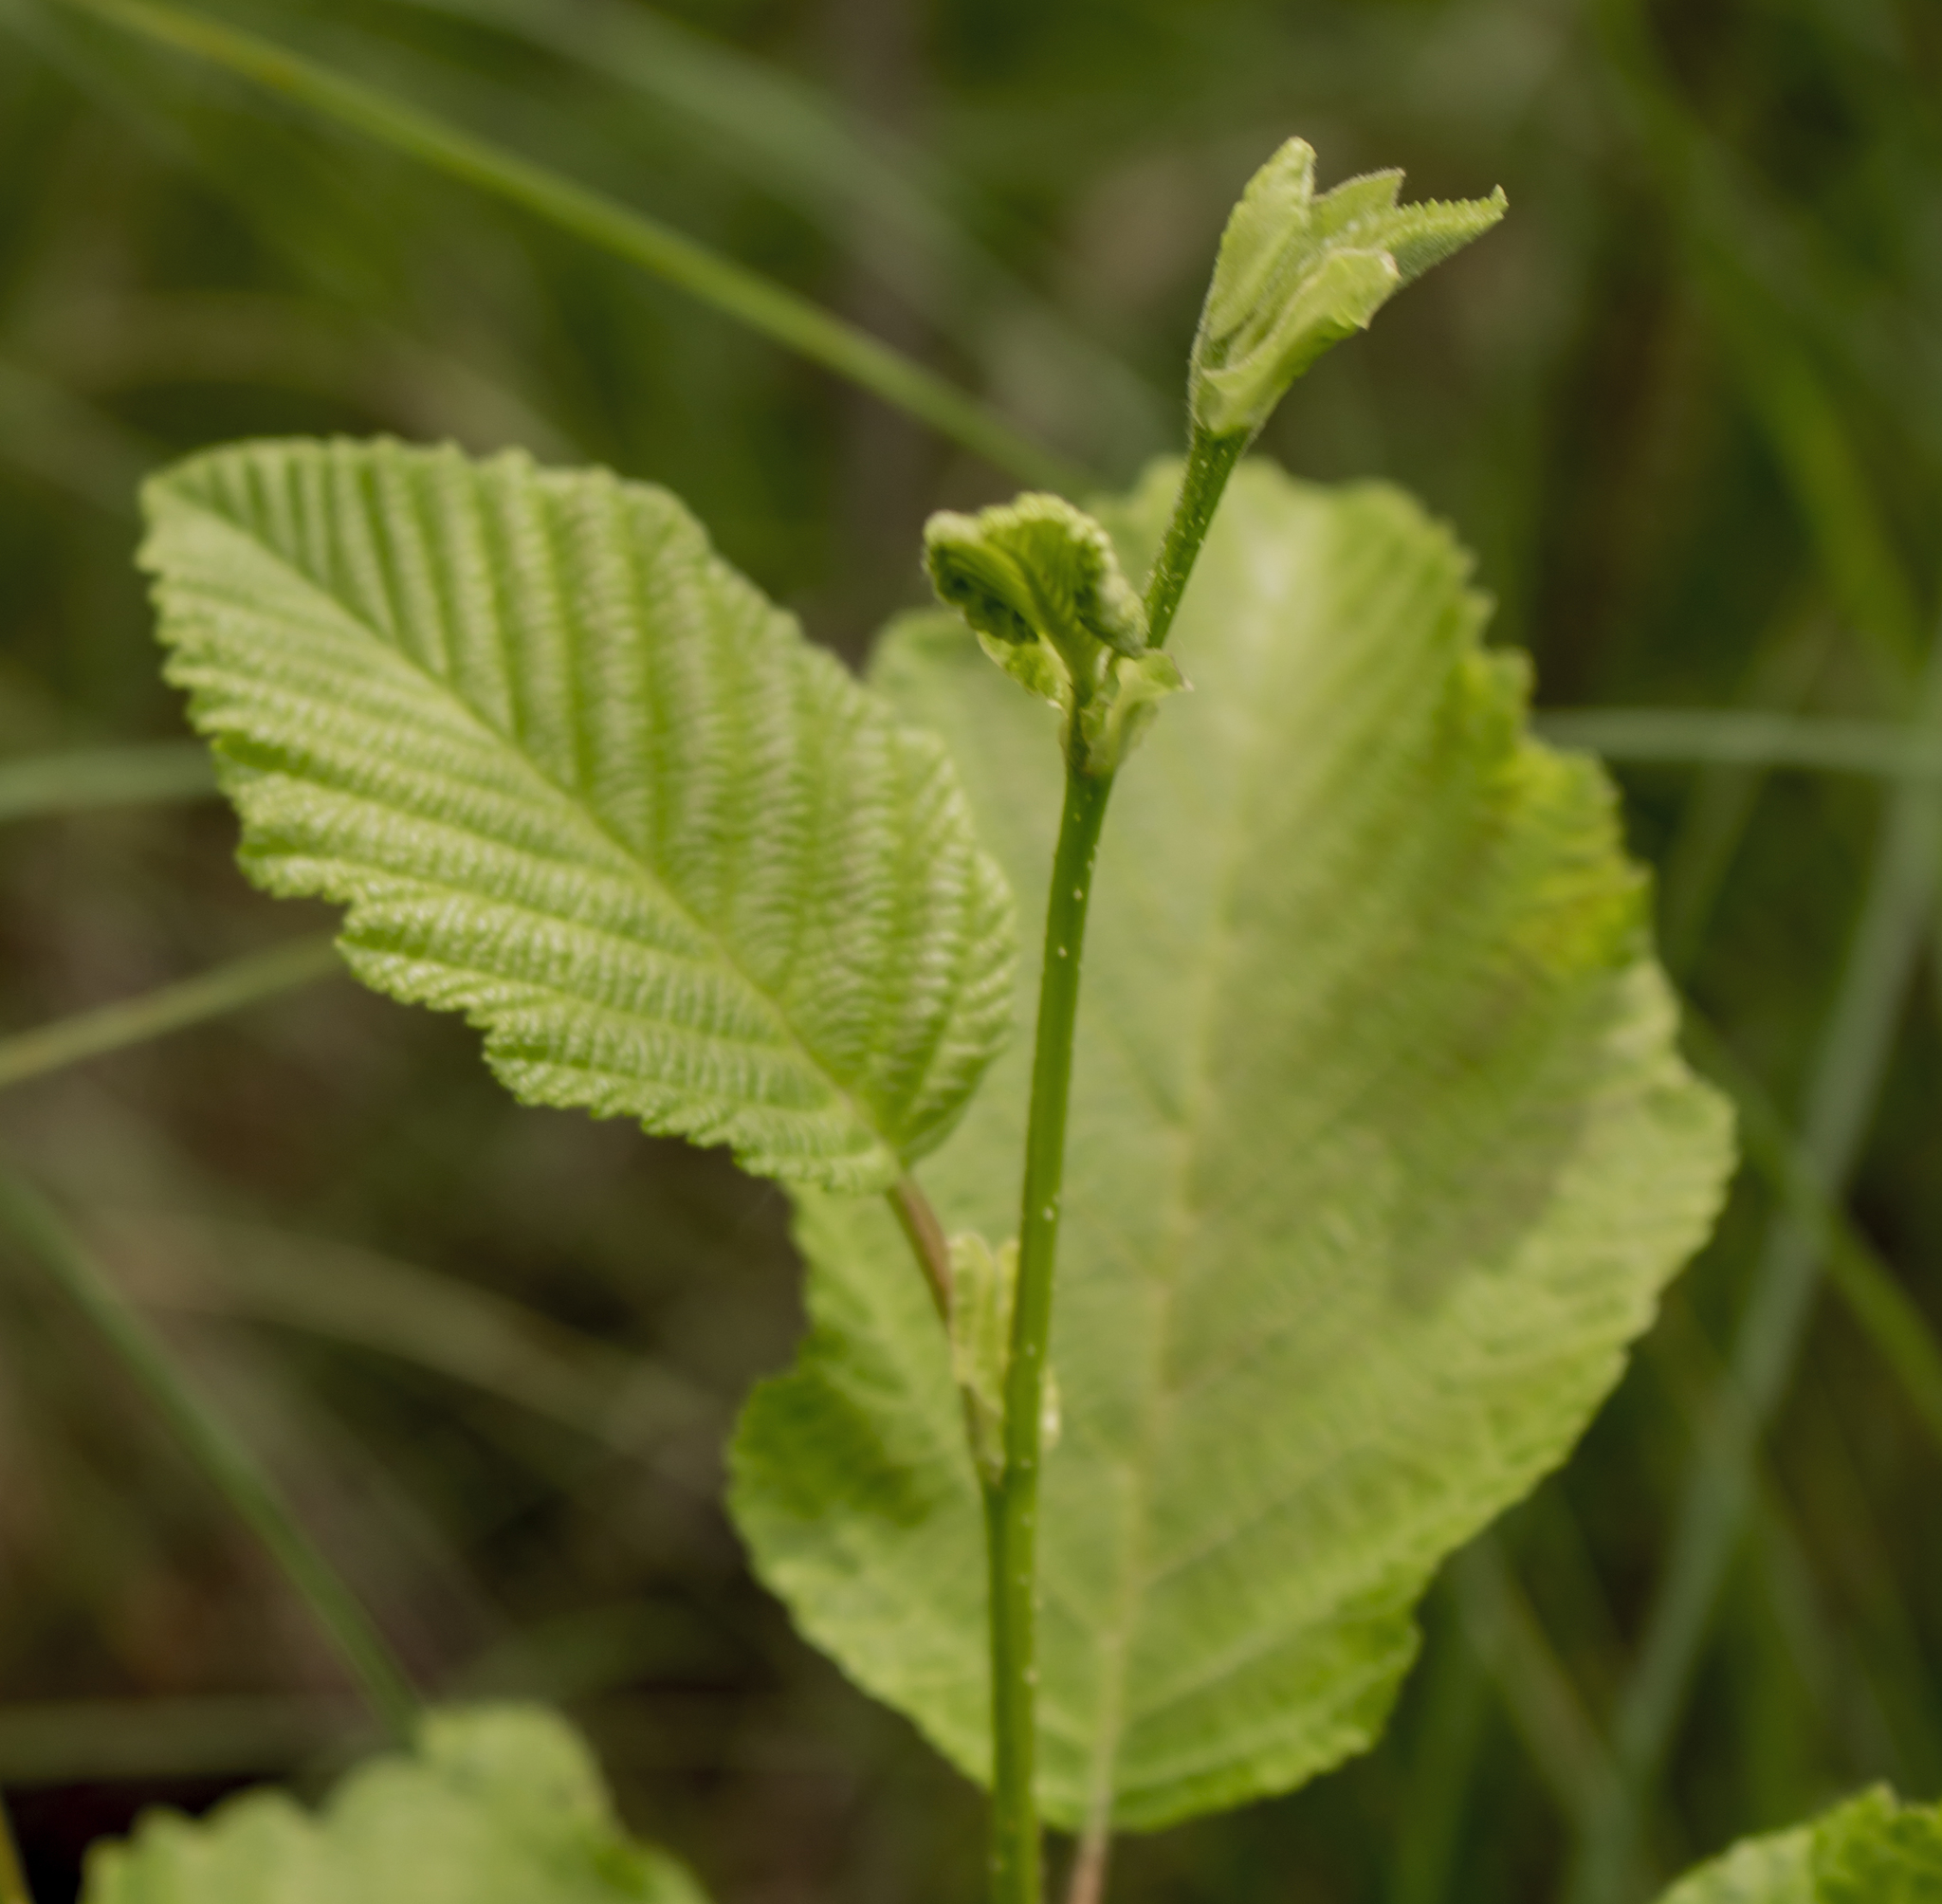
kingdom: Plantae
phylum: Tracheophyta
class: Magnoliopsida
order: Fagales
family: Betulaceae
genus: Alnus
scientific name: Alnus incana
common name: Grey alder
